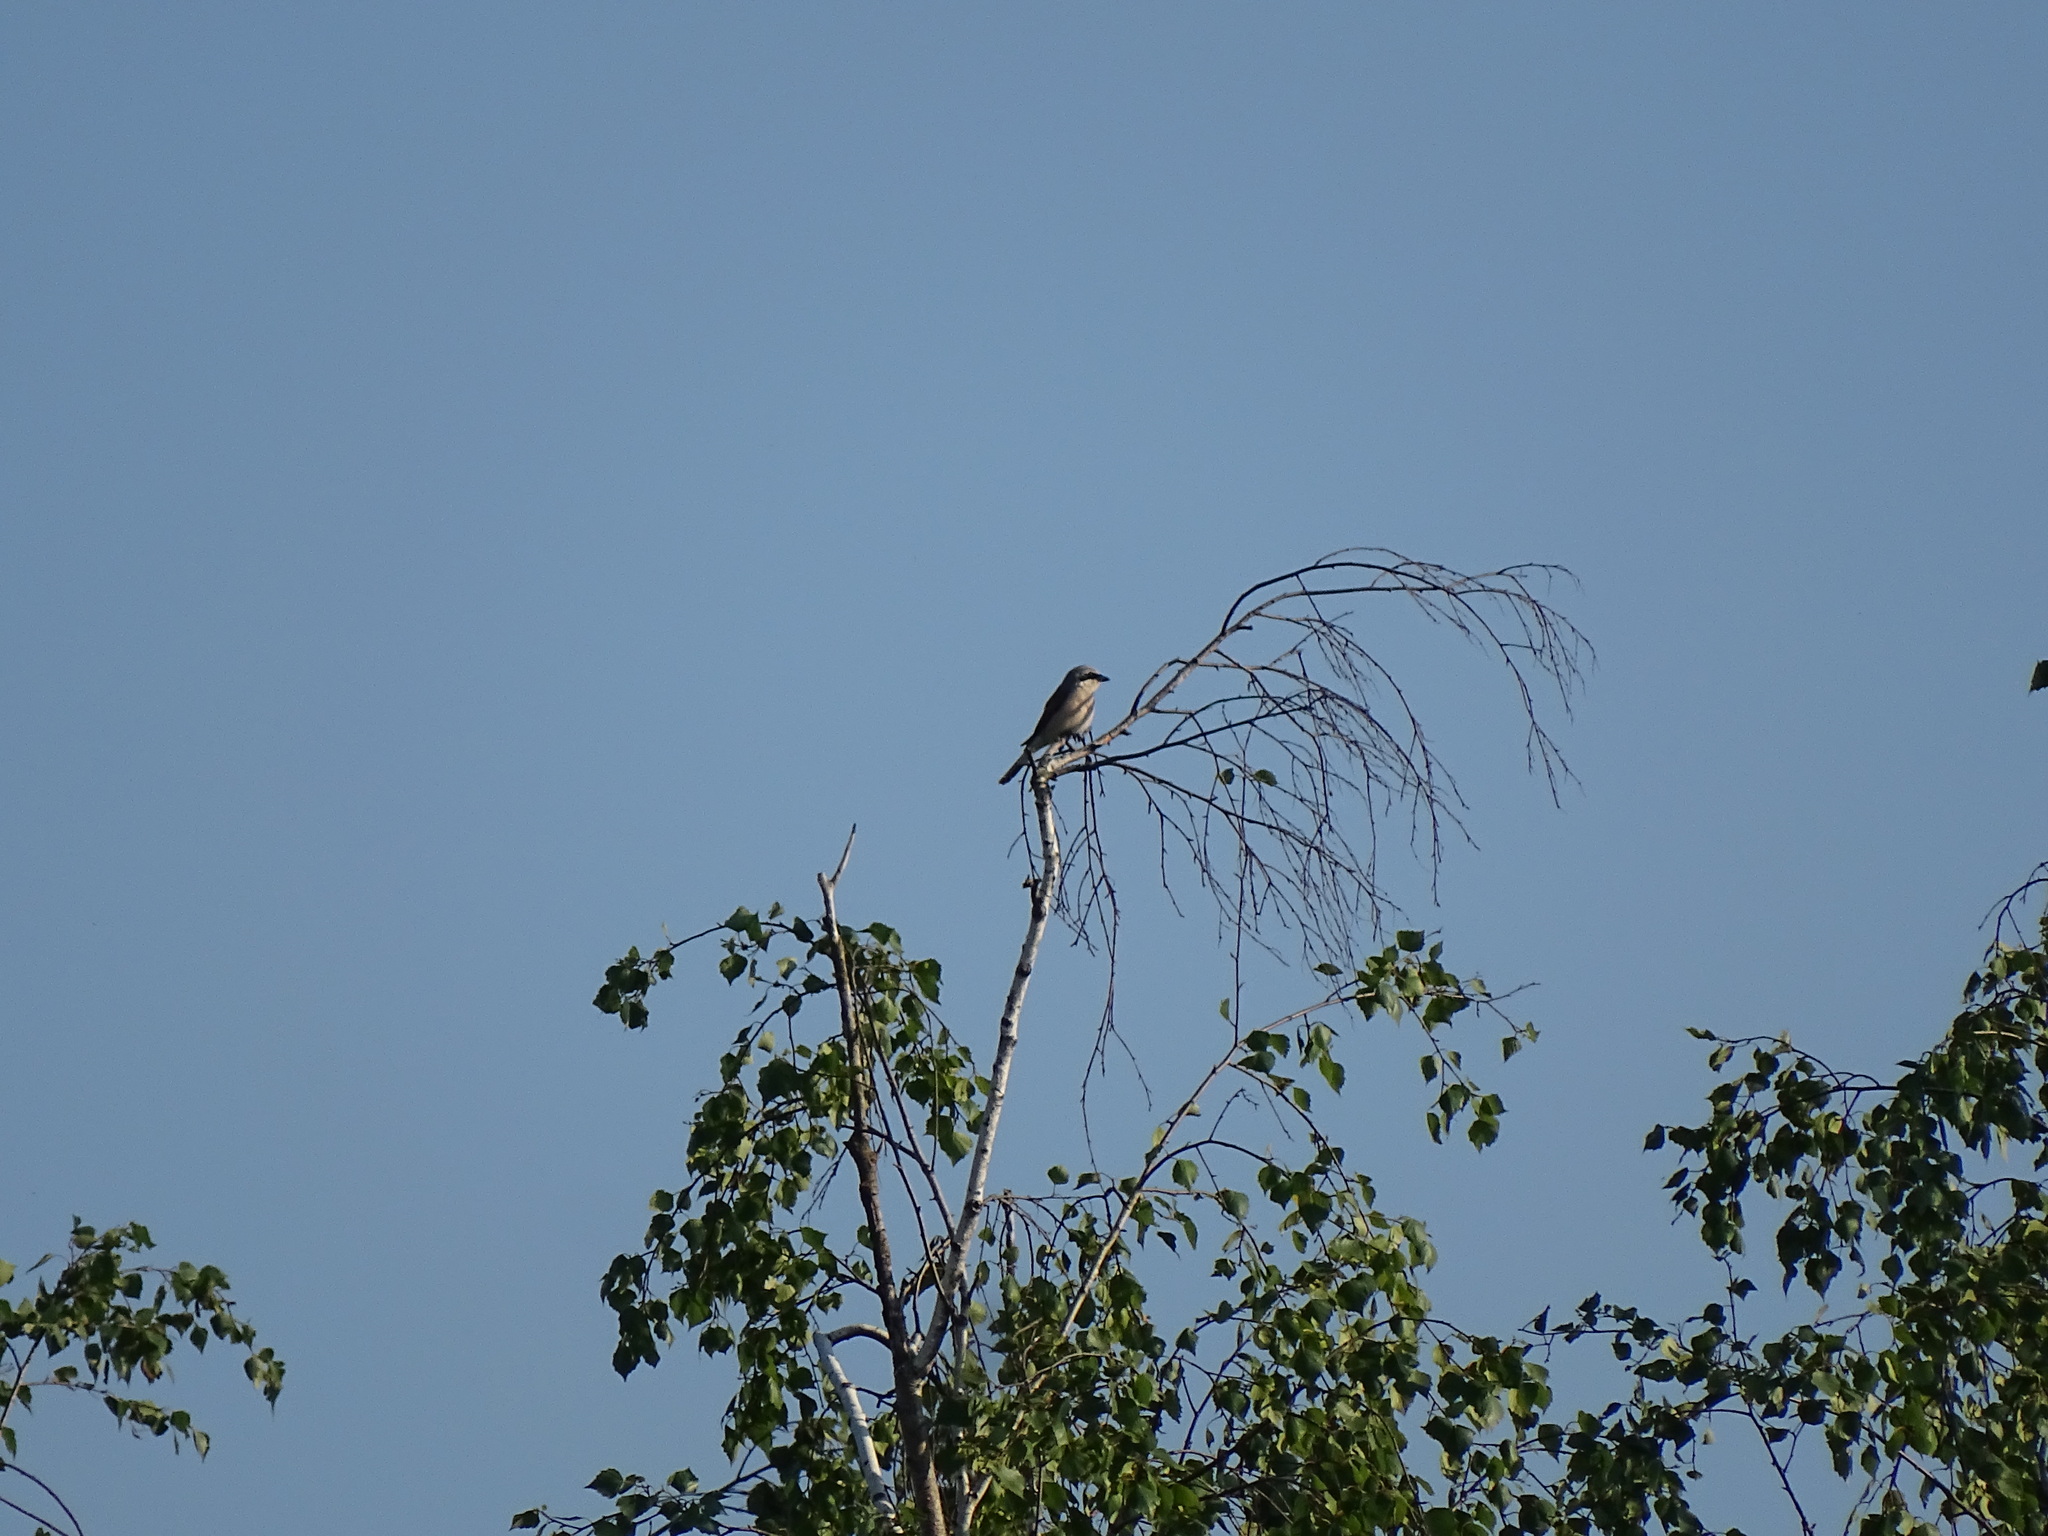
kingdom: Animalia
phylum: Chordata
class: Aves
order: Passeriformes
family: Laniidae
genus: Lanius
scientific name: Lanius collurio
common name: Red-backed shrike
